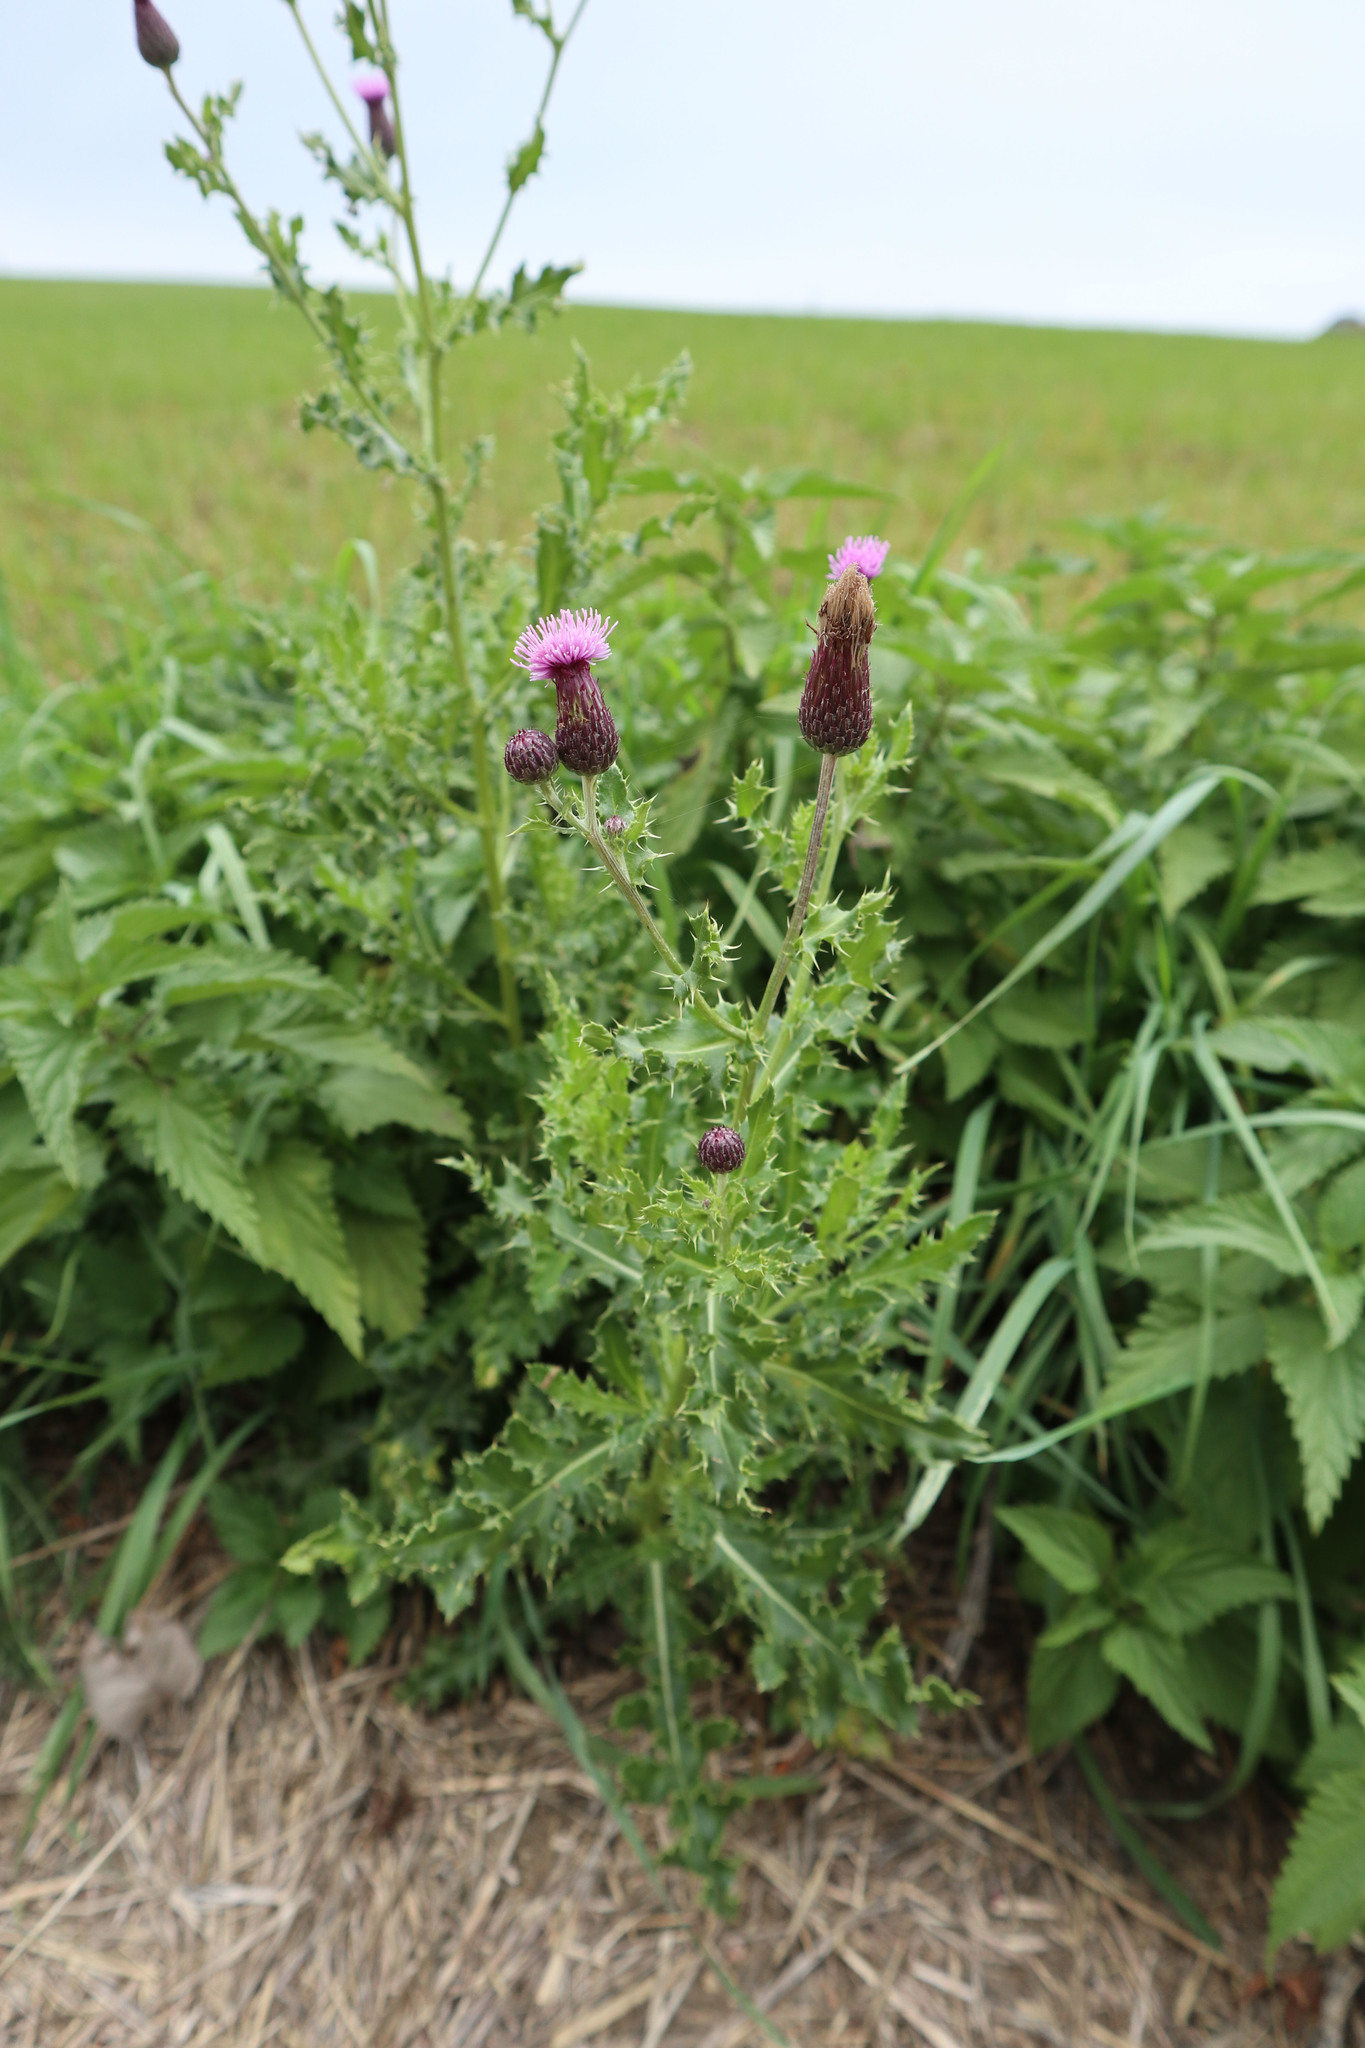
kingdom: Plantae
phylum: Tracheophyta
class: Magnoliopsida
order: Asterales
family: Asteraceae
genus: Cirsium
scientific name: Cirsium arvense
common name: Creeping thistle
